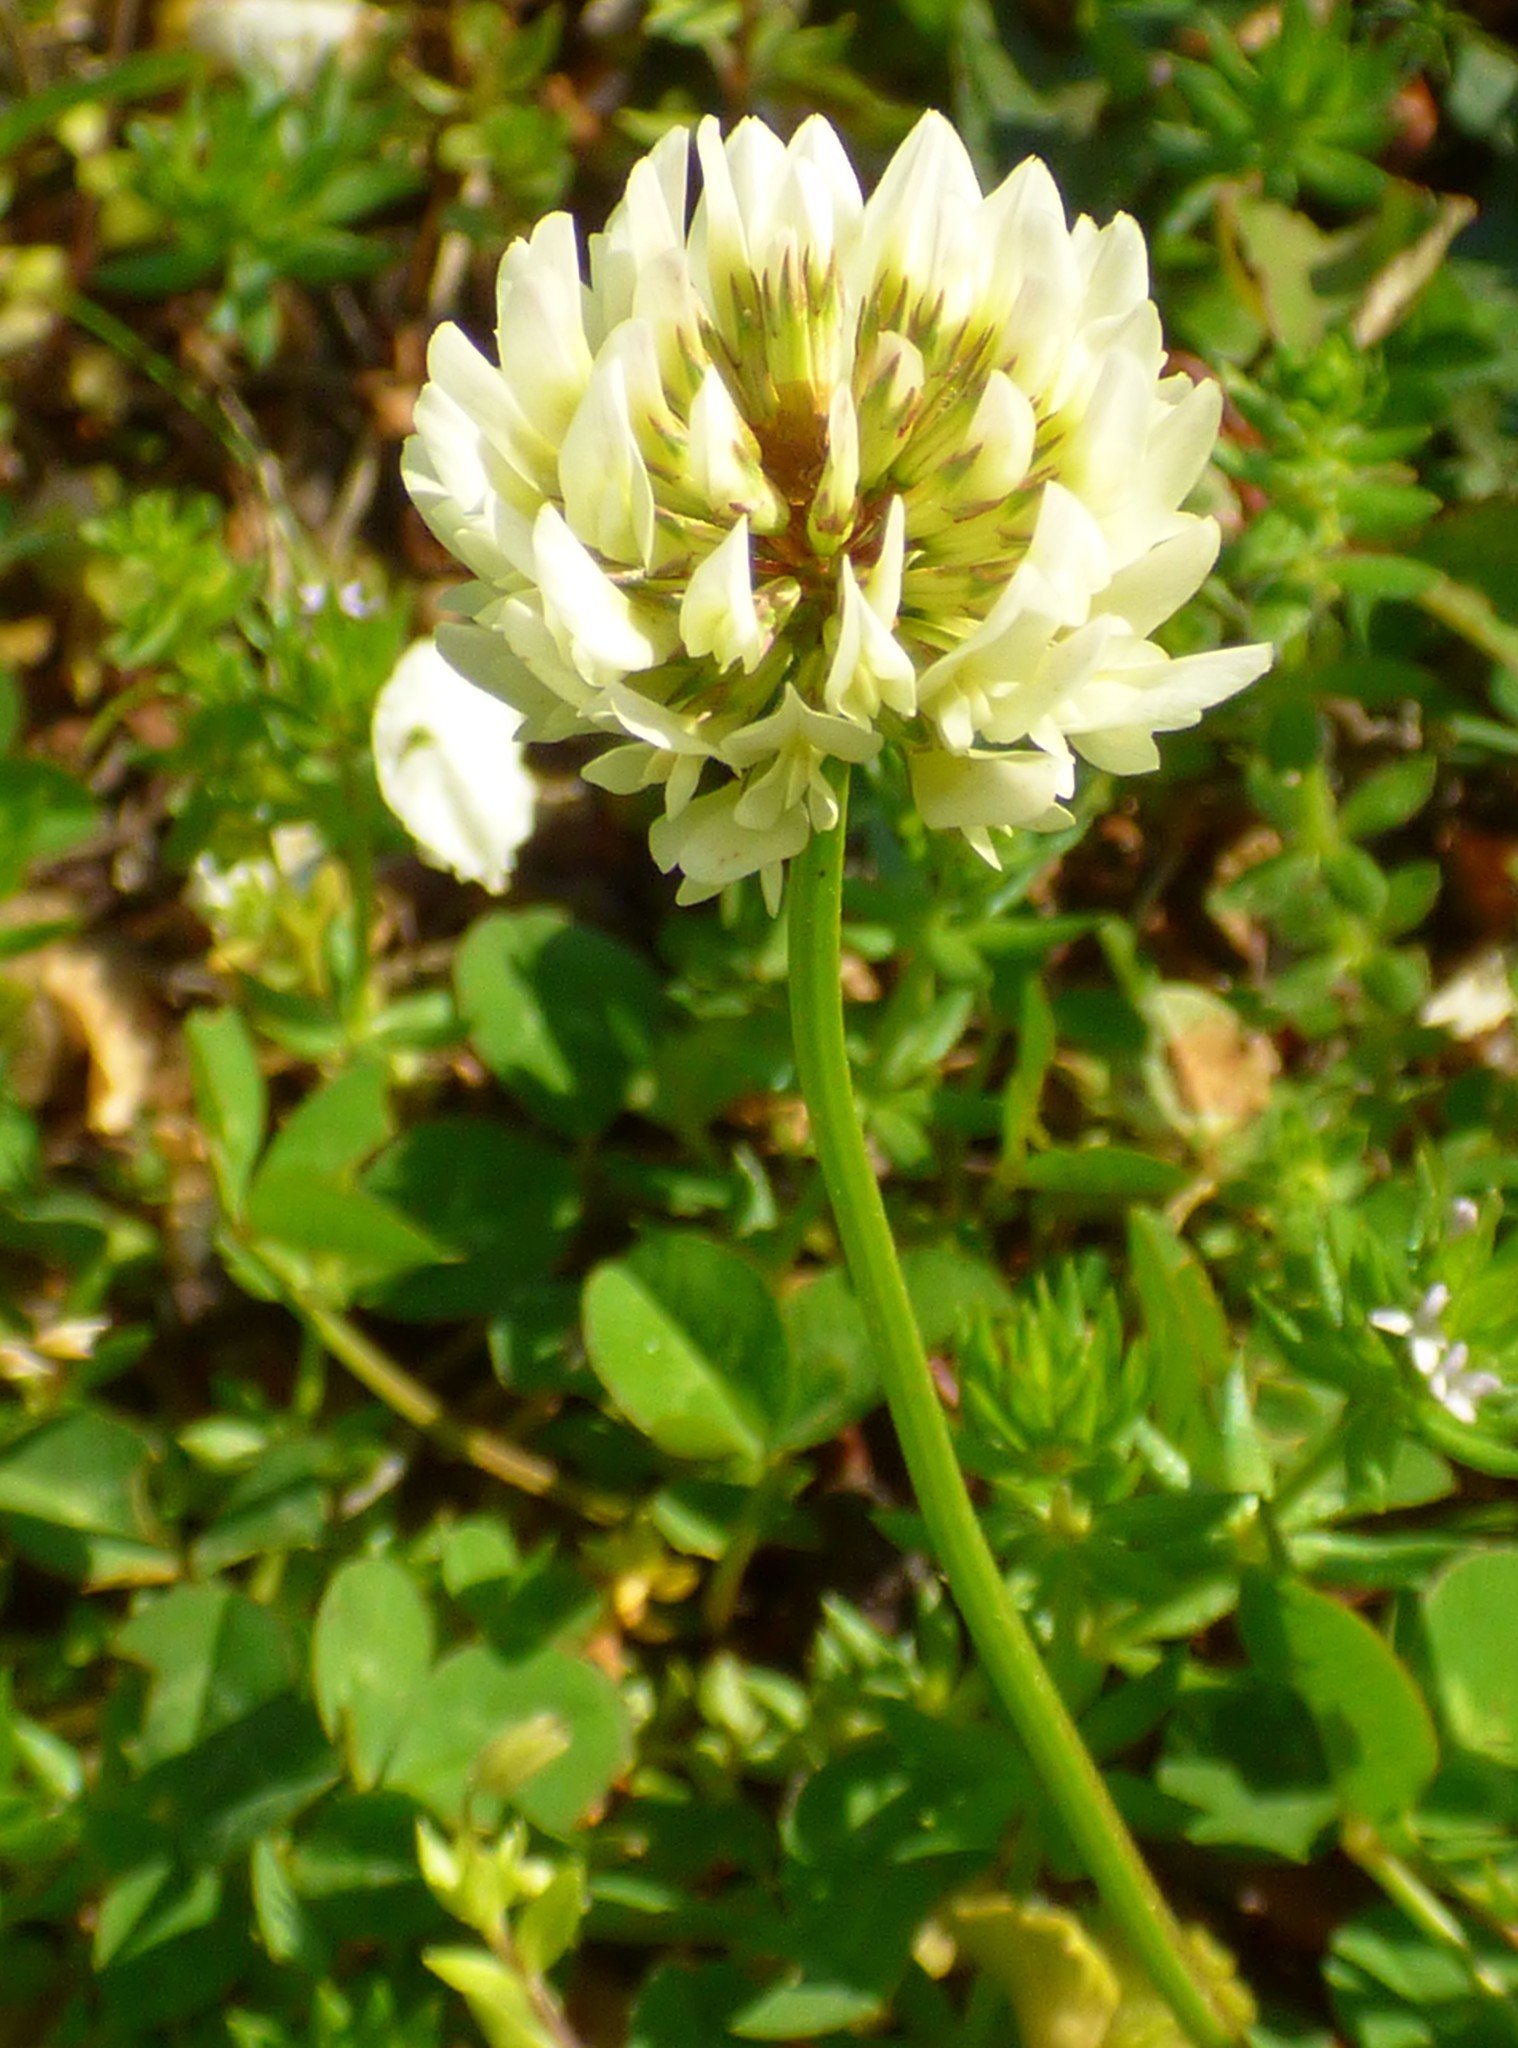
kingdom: Plantae
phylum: Tracheophyta
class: Magnoliopsida
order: Fabales
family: Fabaceae
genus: Trifolium
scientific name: Trifolium repens
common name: White clover
